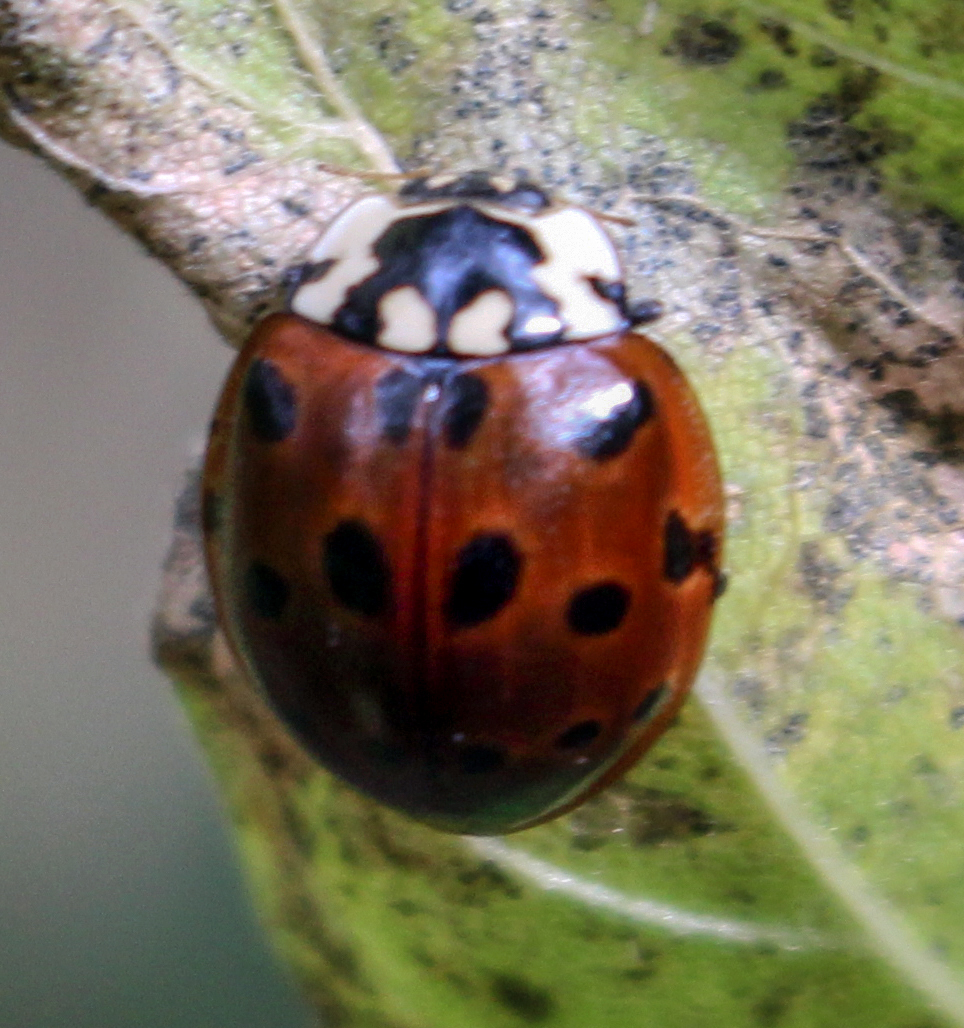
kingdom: Animalia
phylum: Arthropoda
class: Insecta
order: Coleoptera
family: Coccinellidae
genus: Anatis
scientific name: Anatis mali
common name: Eye-spotted lady beetle
